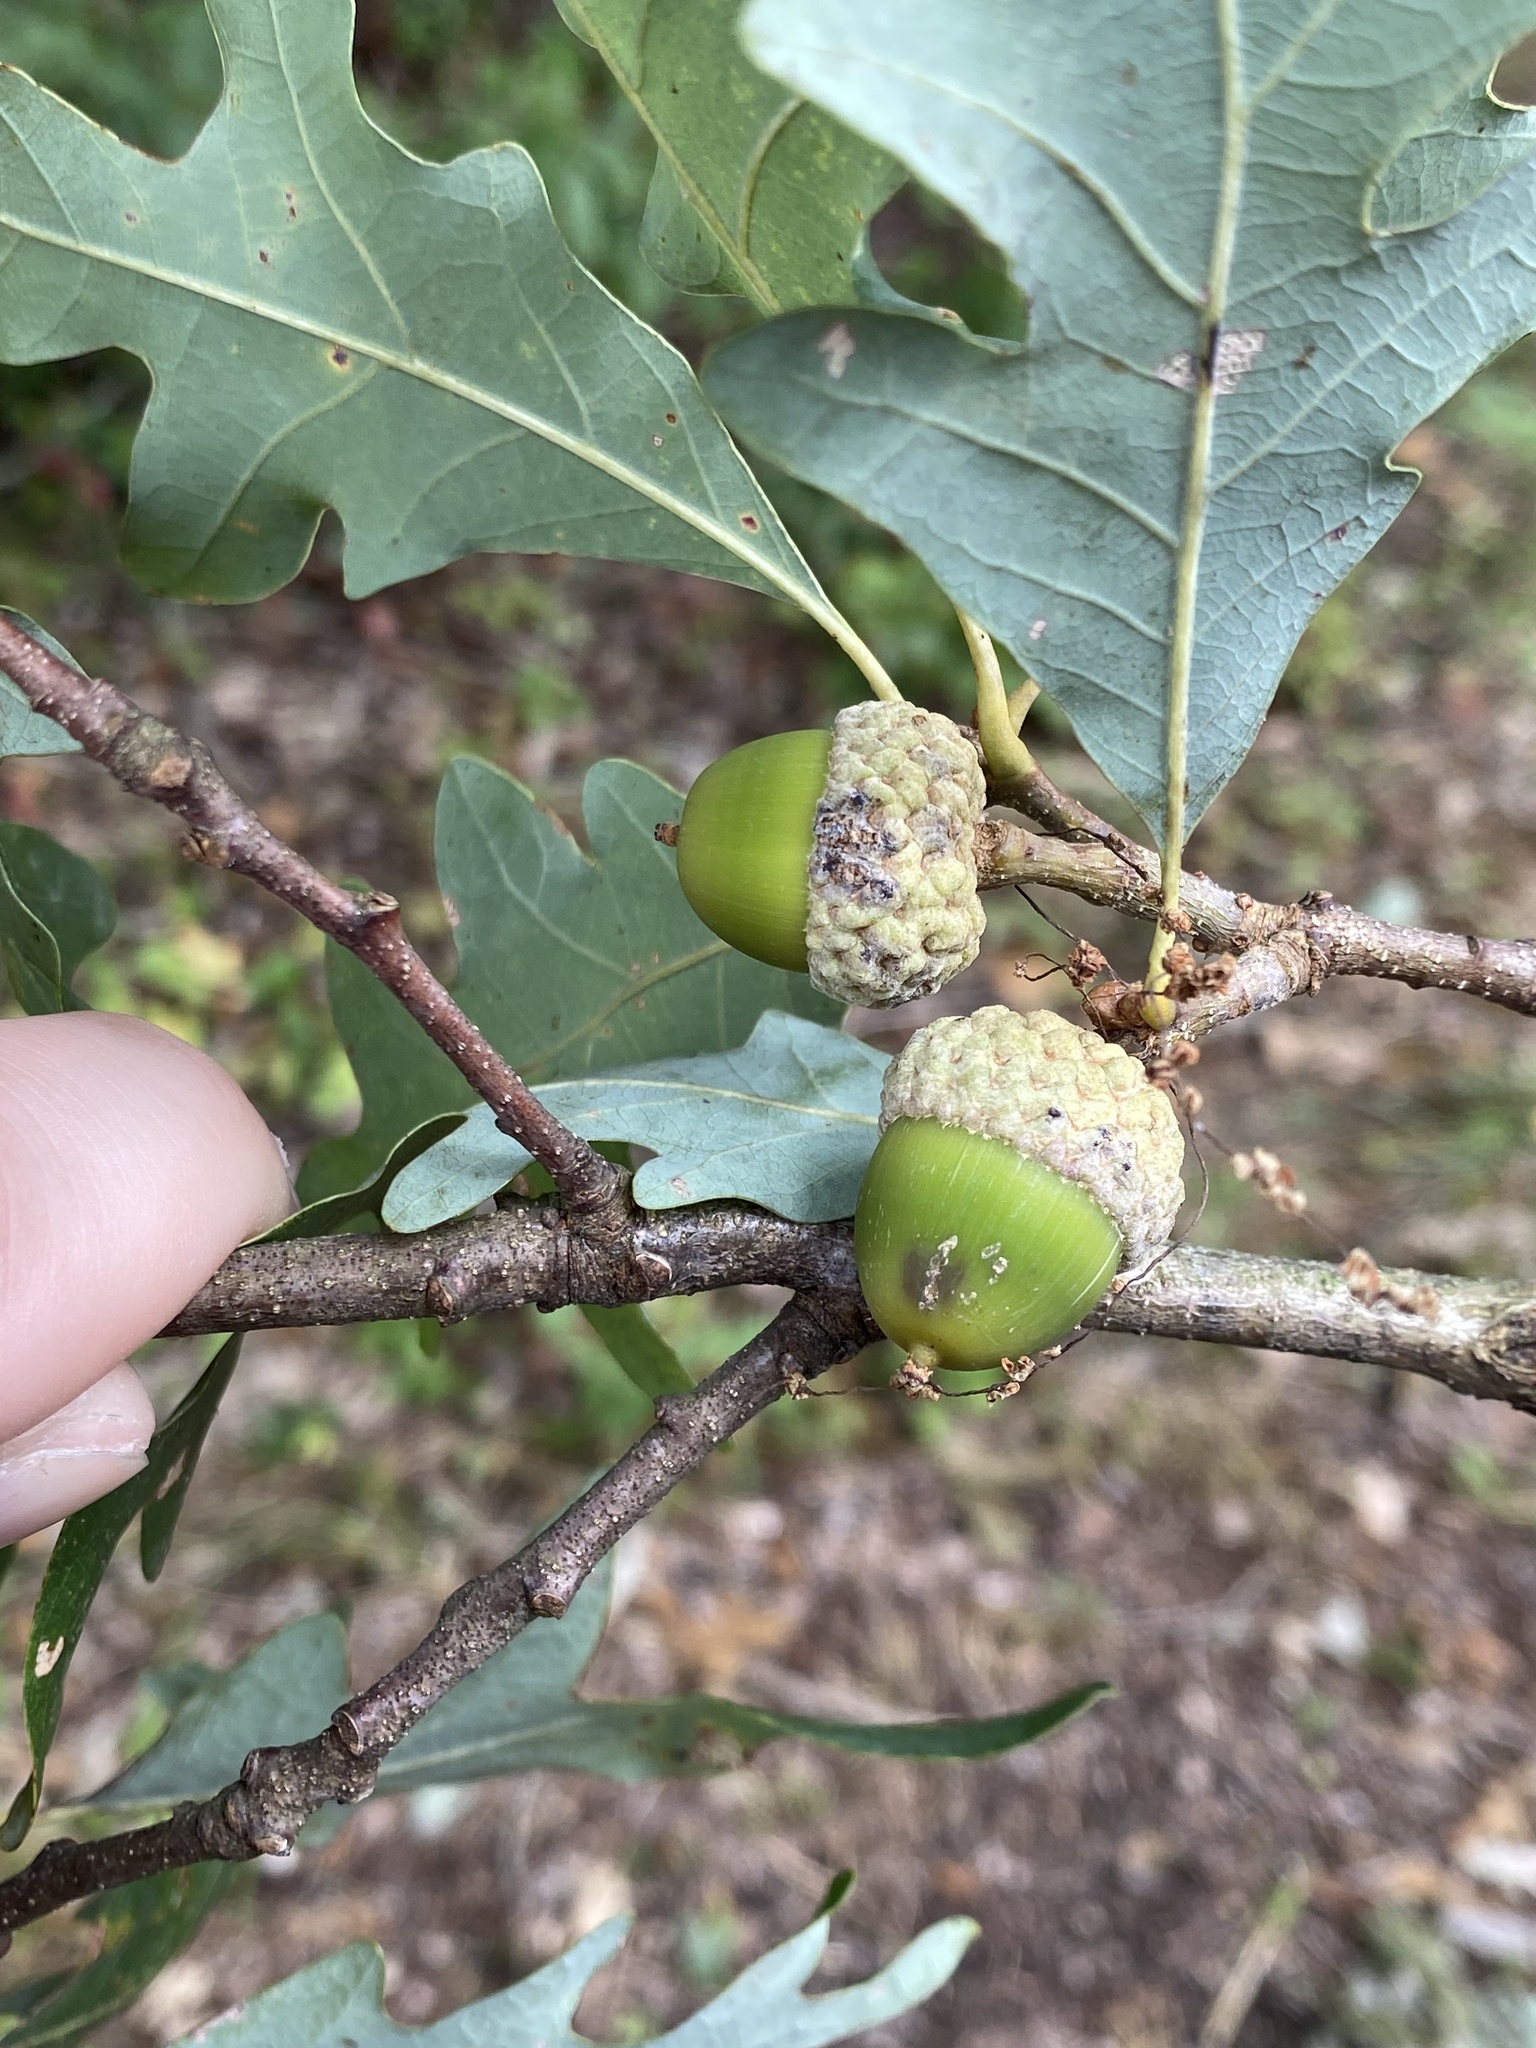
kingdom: Plantae
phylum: Tracheophyta
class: Magnoliopsida
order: Fagales
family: Fagaceae
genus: Quercus
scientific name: Quercus alba
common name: White oak
